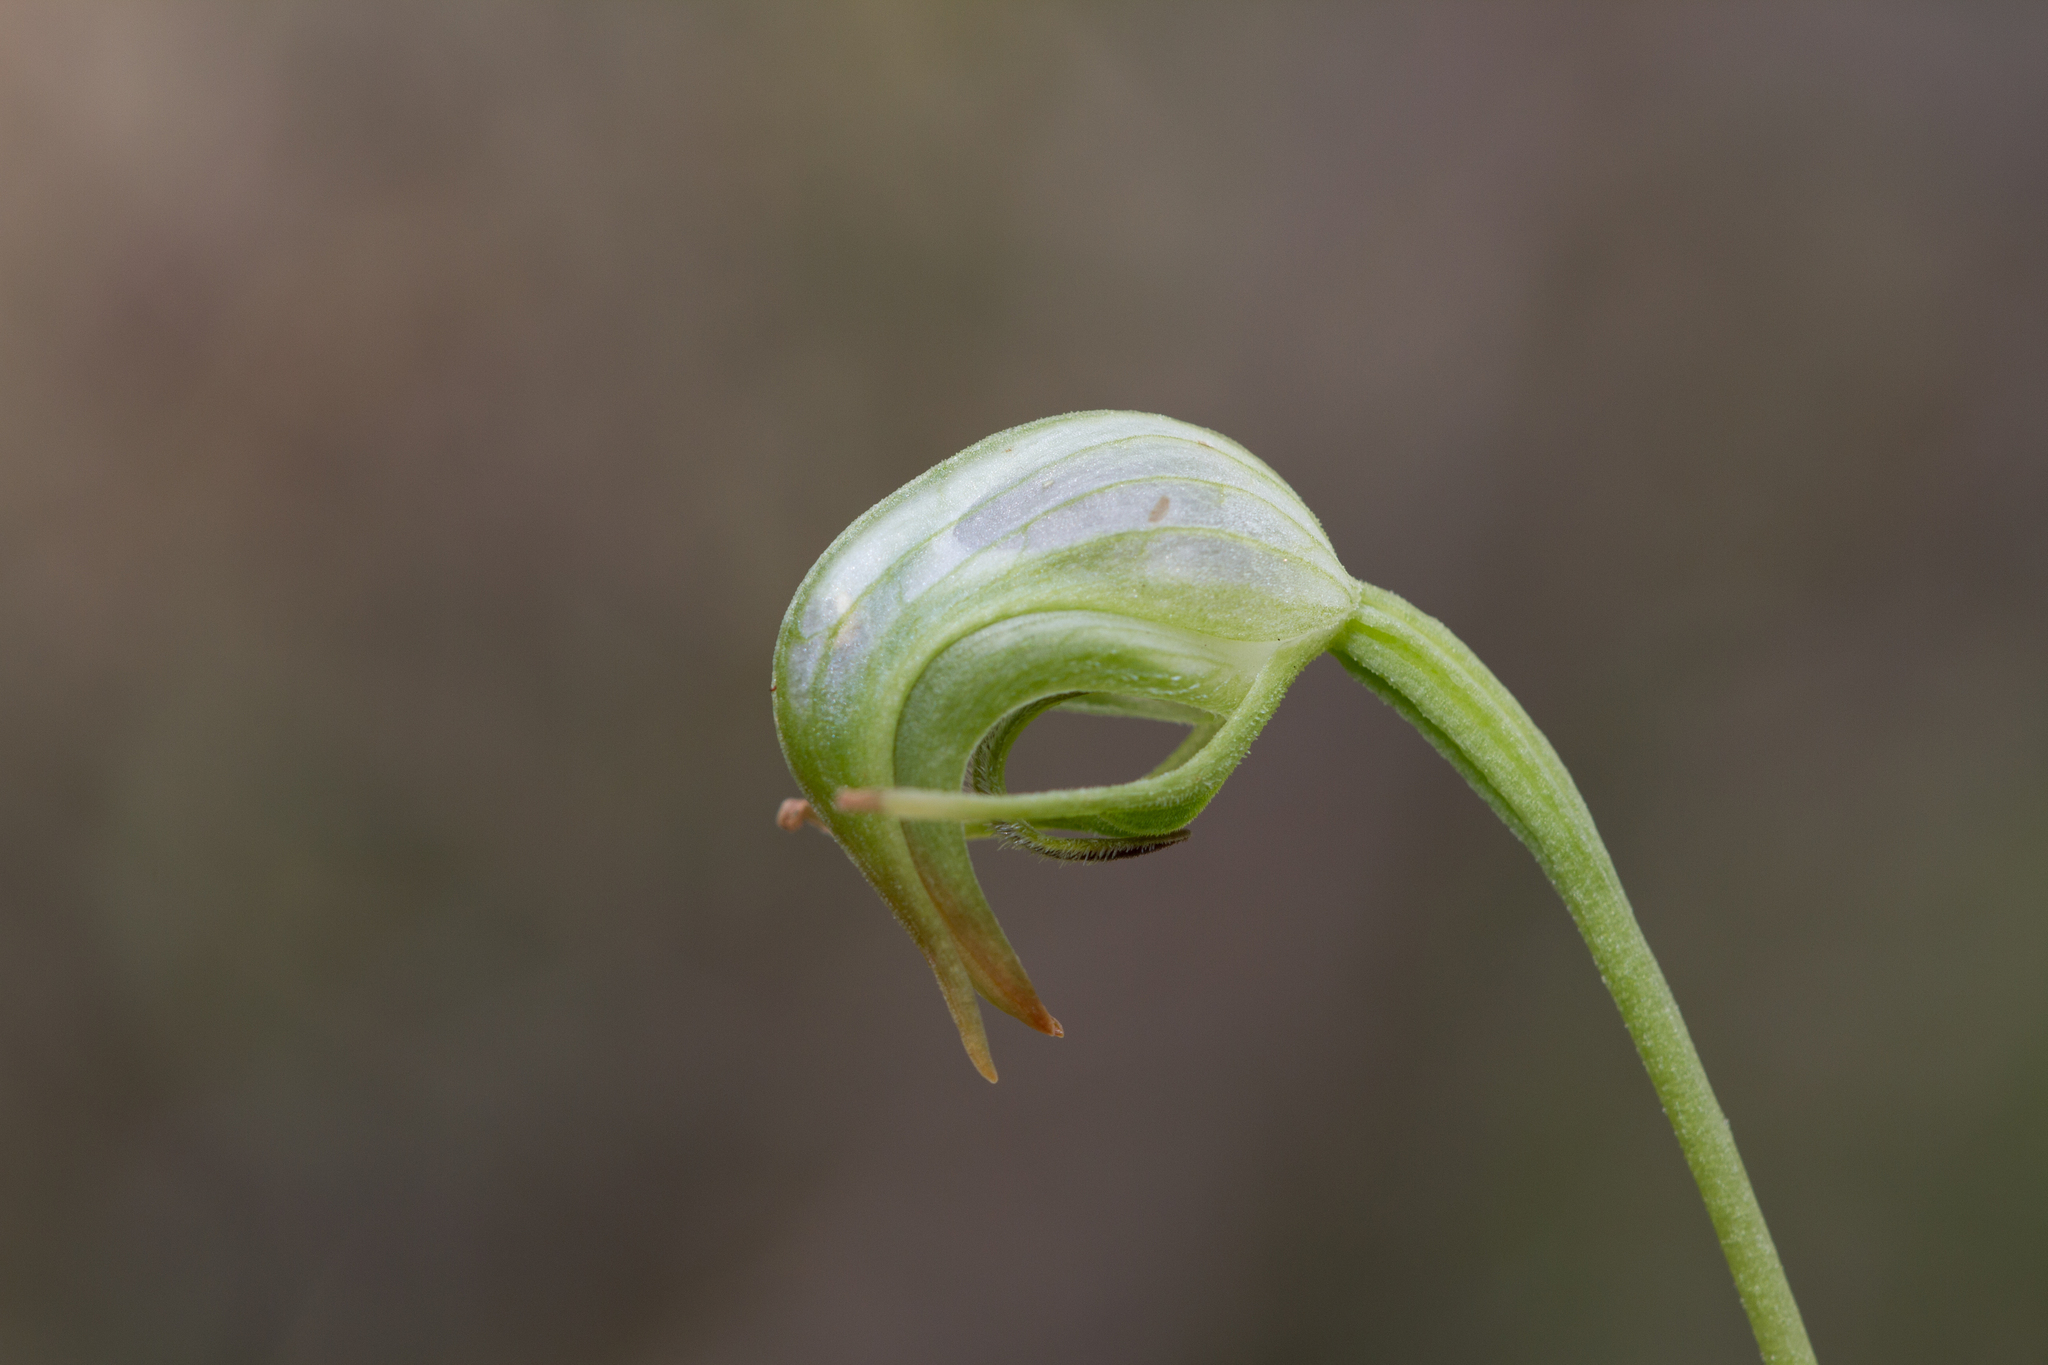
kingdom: Plantae
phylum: Tracheophyta
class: Liliopsida
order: Asparagales
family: Orchidaceae
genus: Pterostylis
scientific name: Pterostylis nutans
